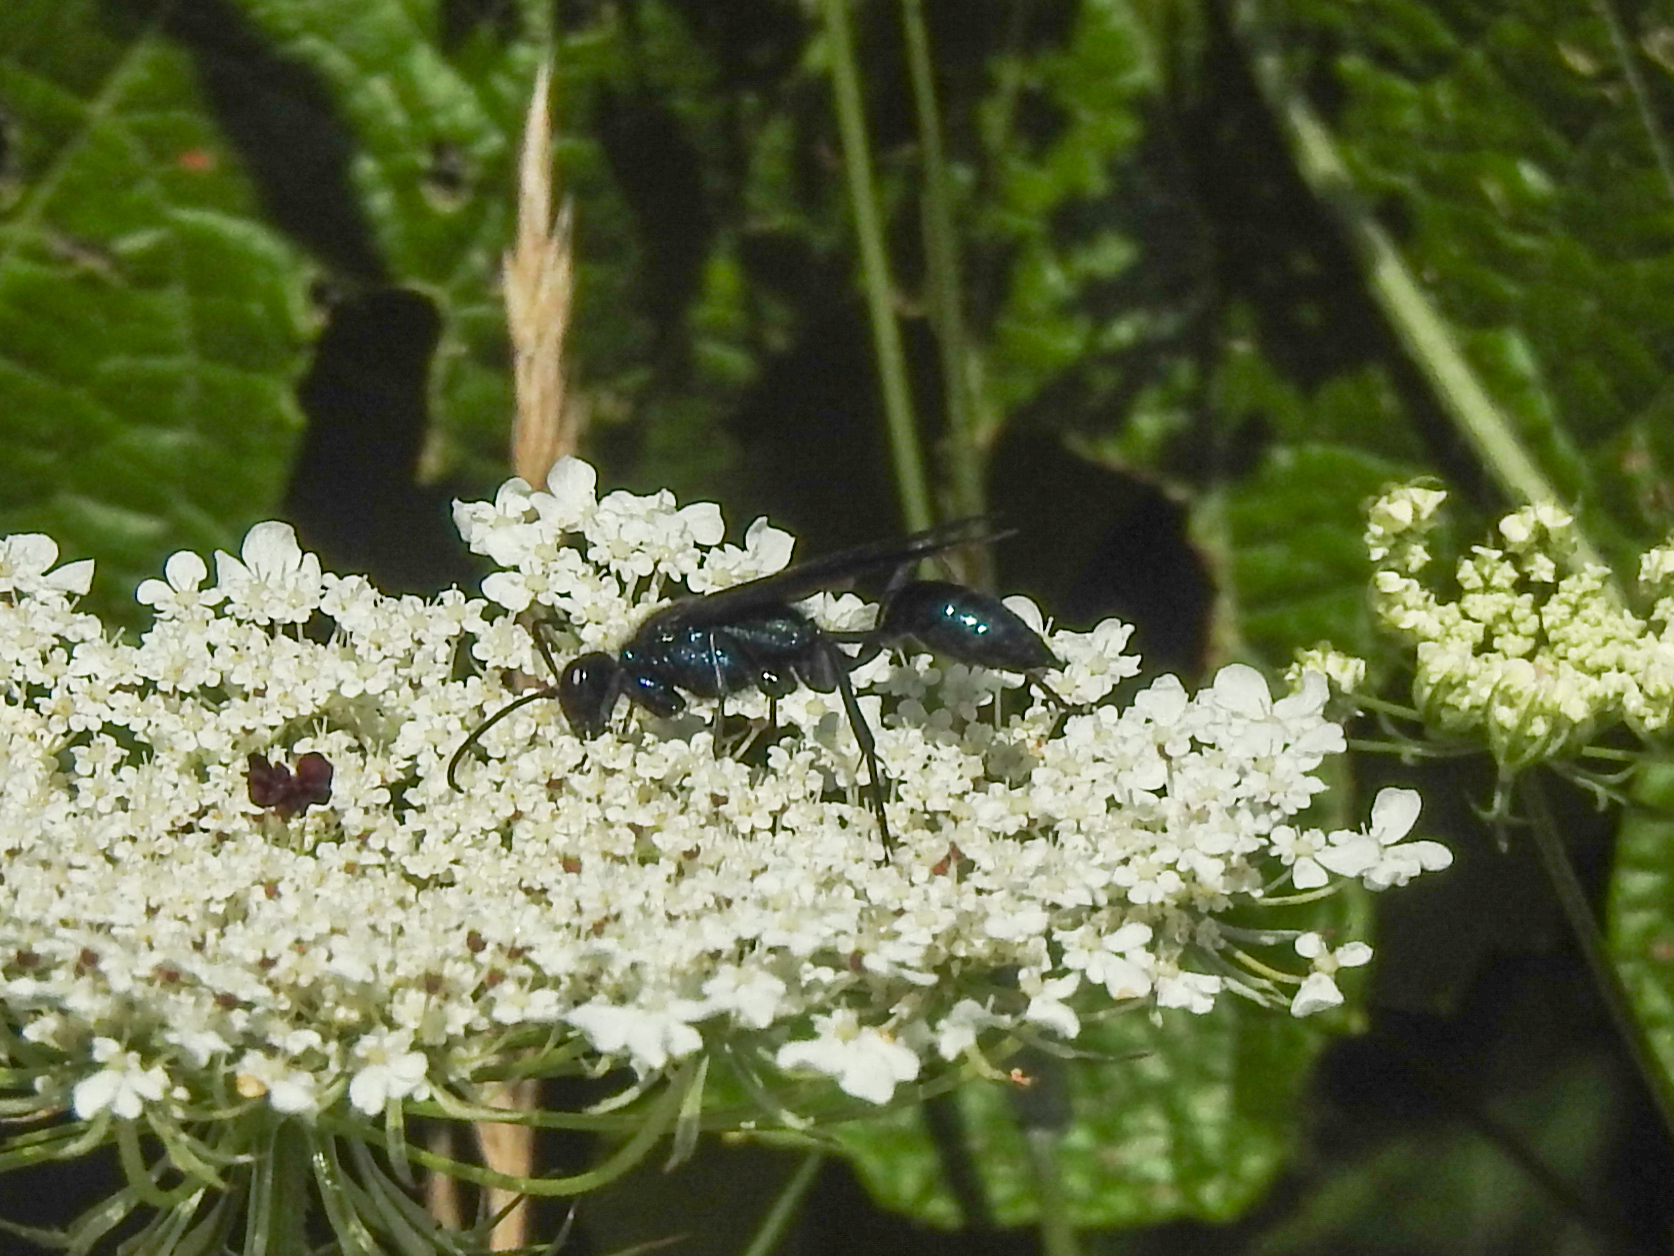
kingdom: Animalia
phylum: Arthropoda
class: Insecta
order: Hymenoptera
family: Sphecidae
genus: Chalybion
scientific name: Chalybion californicum
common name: Mud dauber
